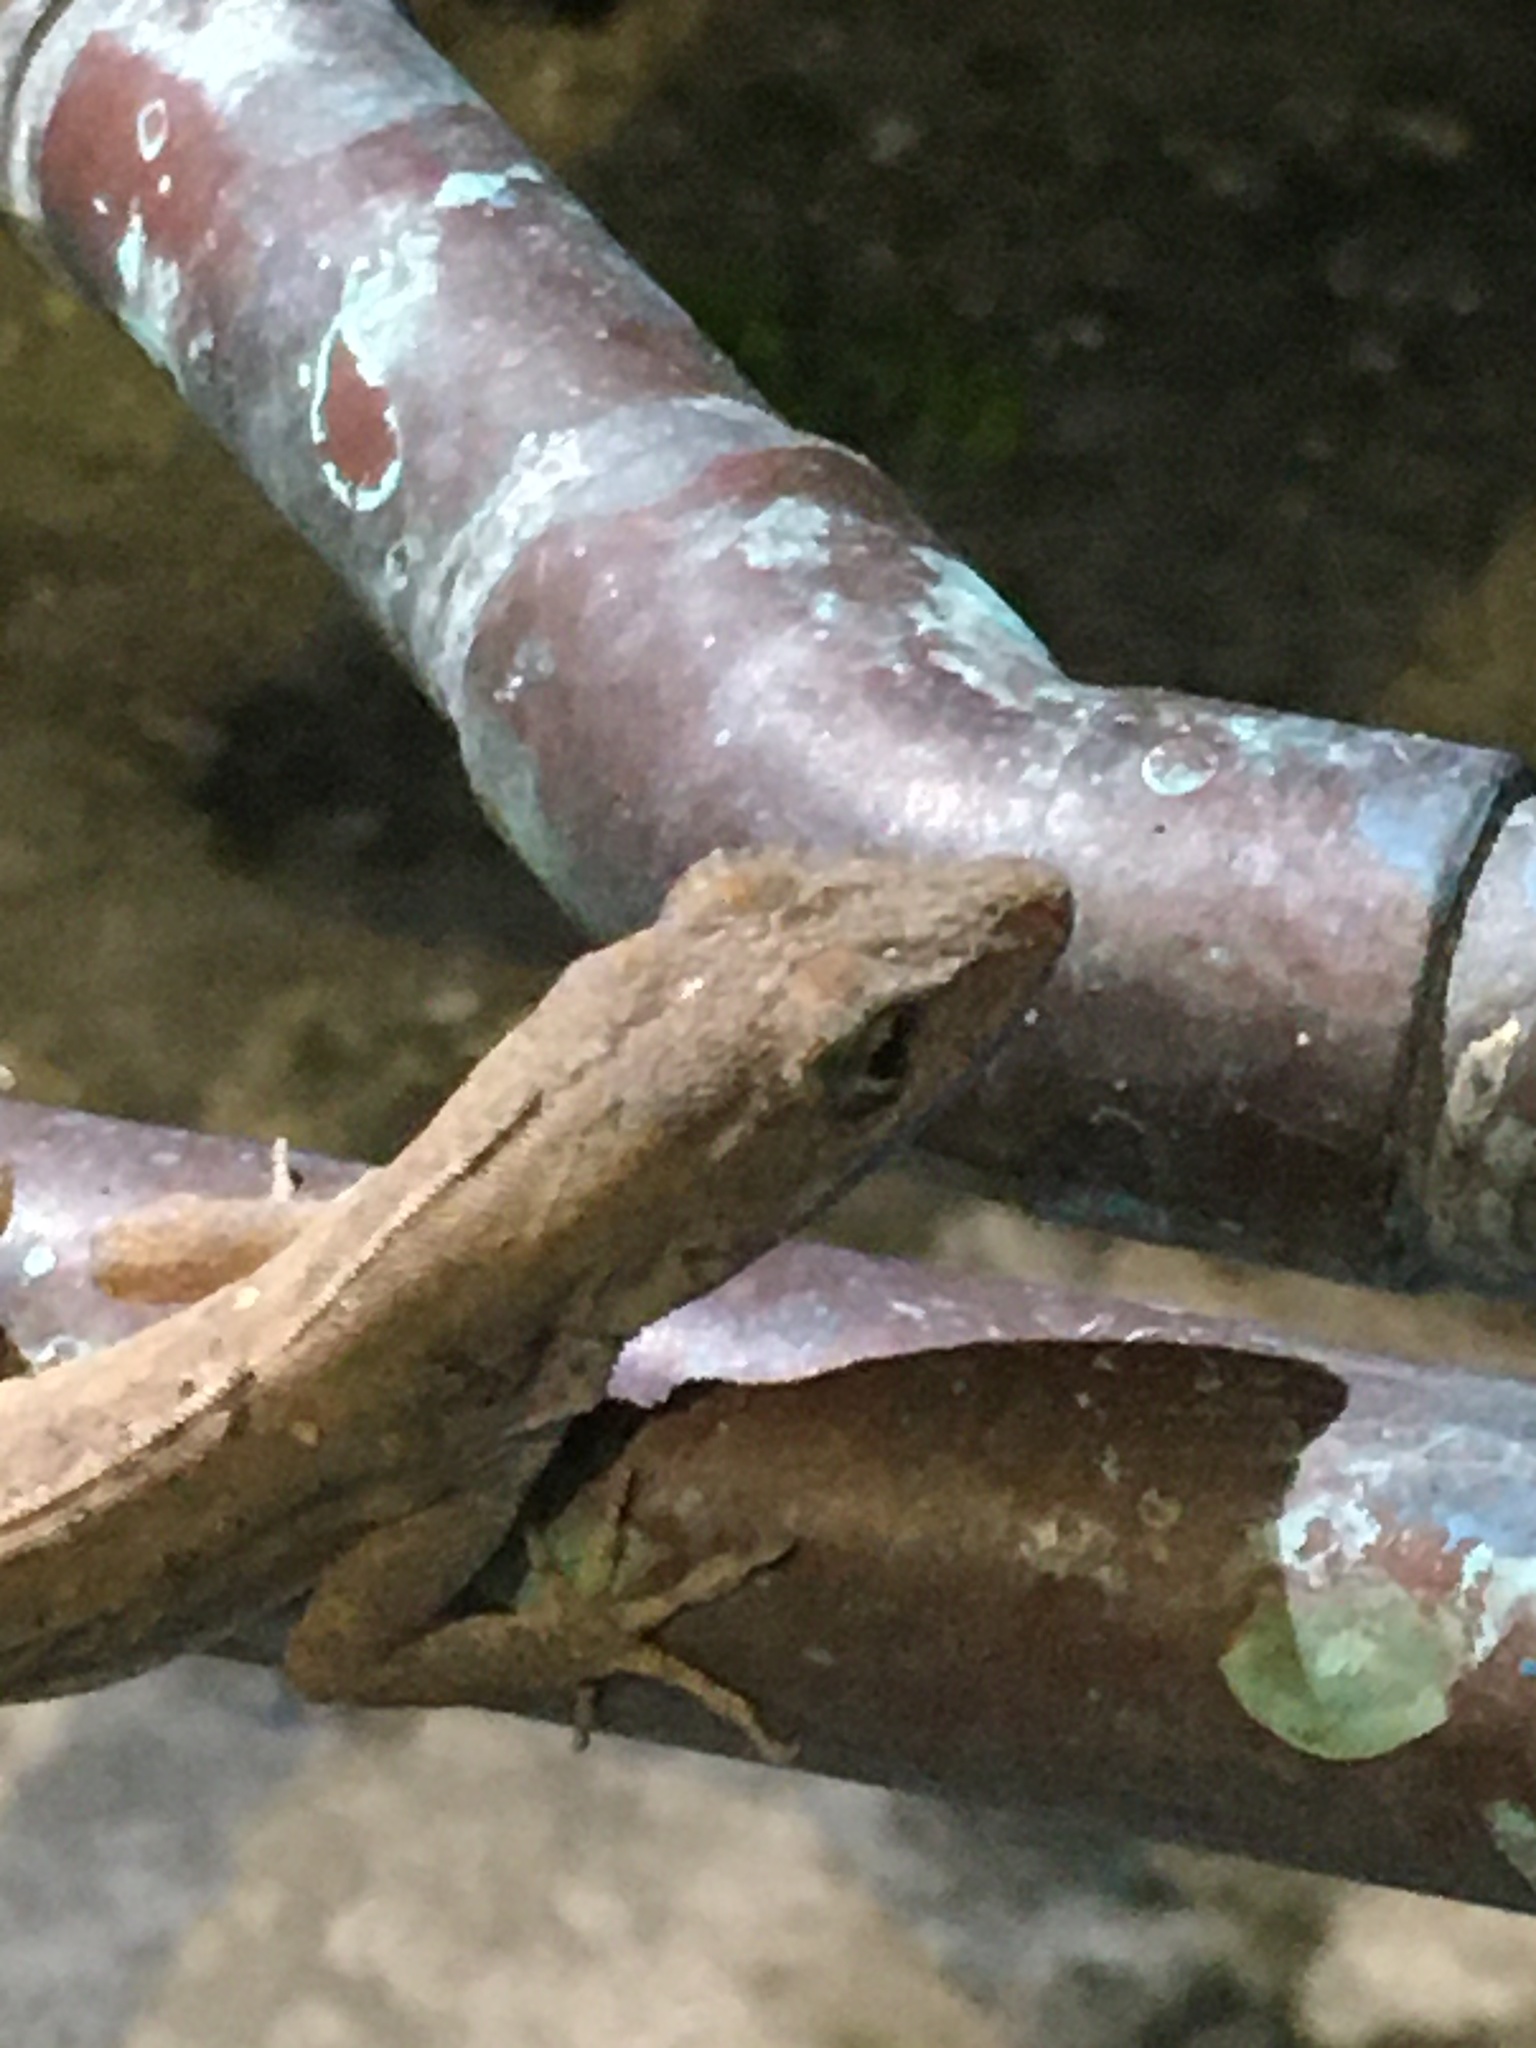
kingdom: Animalia
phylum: Chordata
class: Squamata
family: Dactyloidae
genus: Anolis
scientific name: Anolis sagrei
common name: Brown anole
